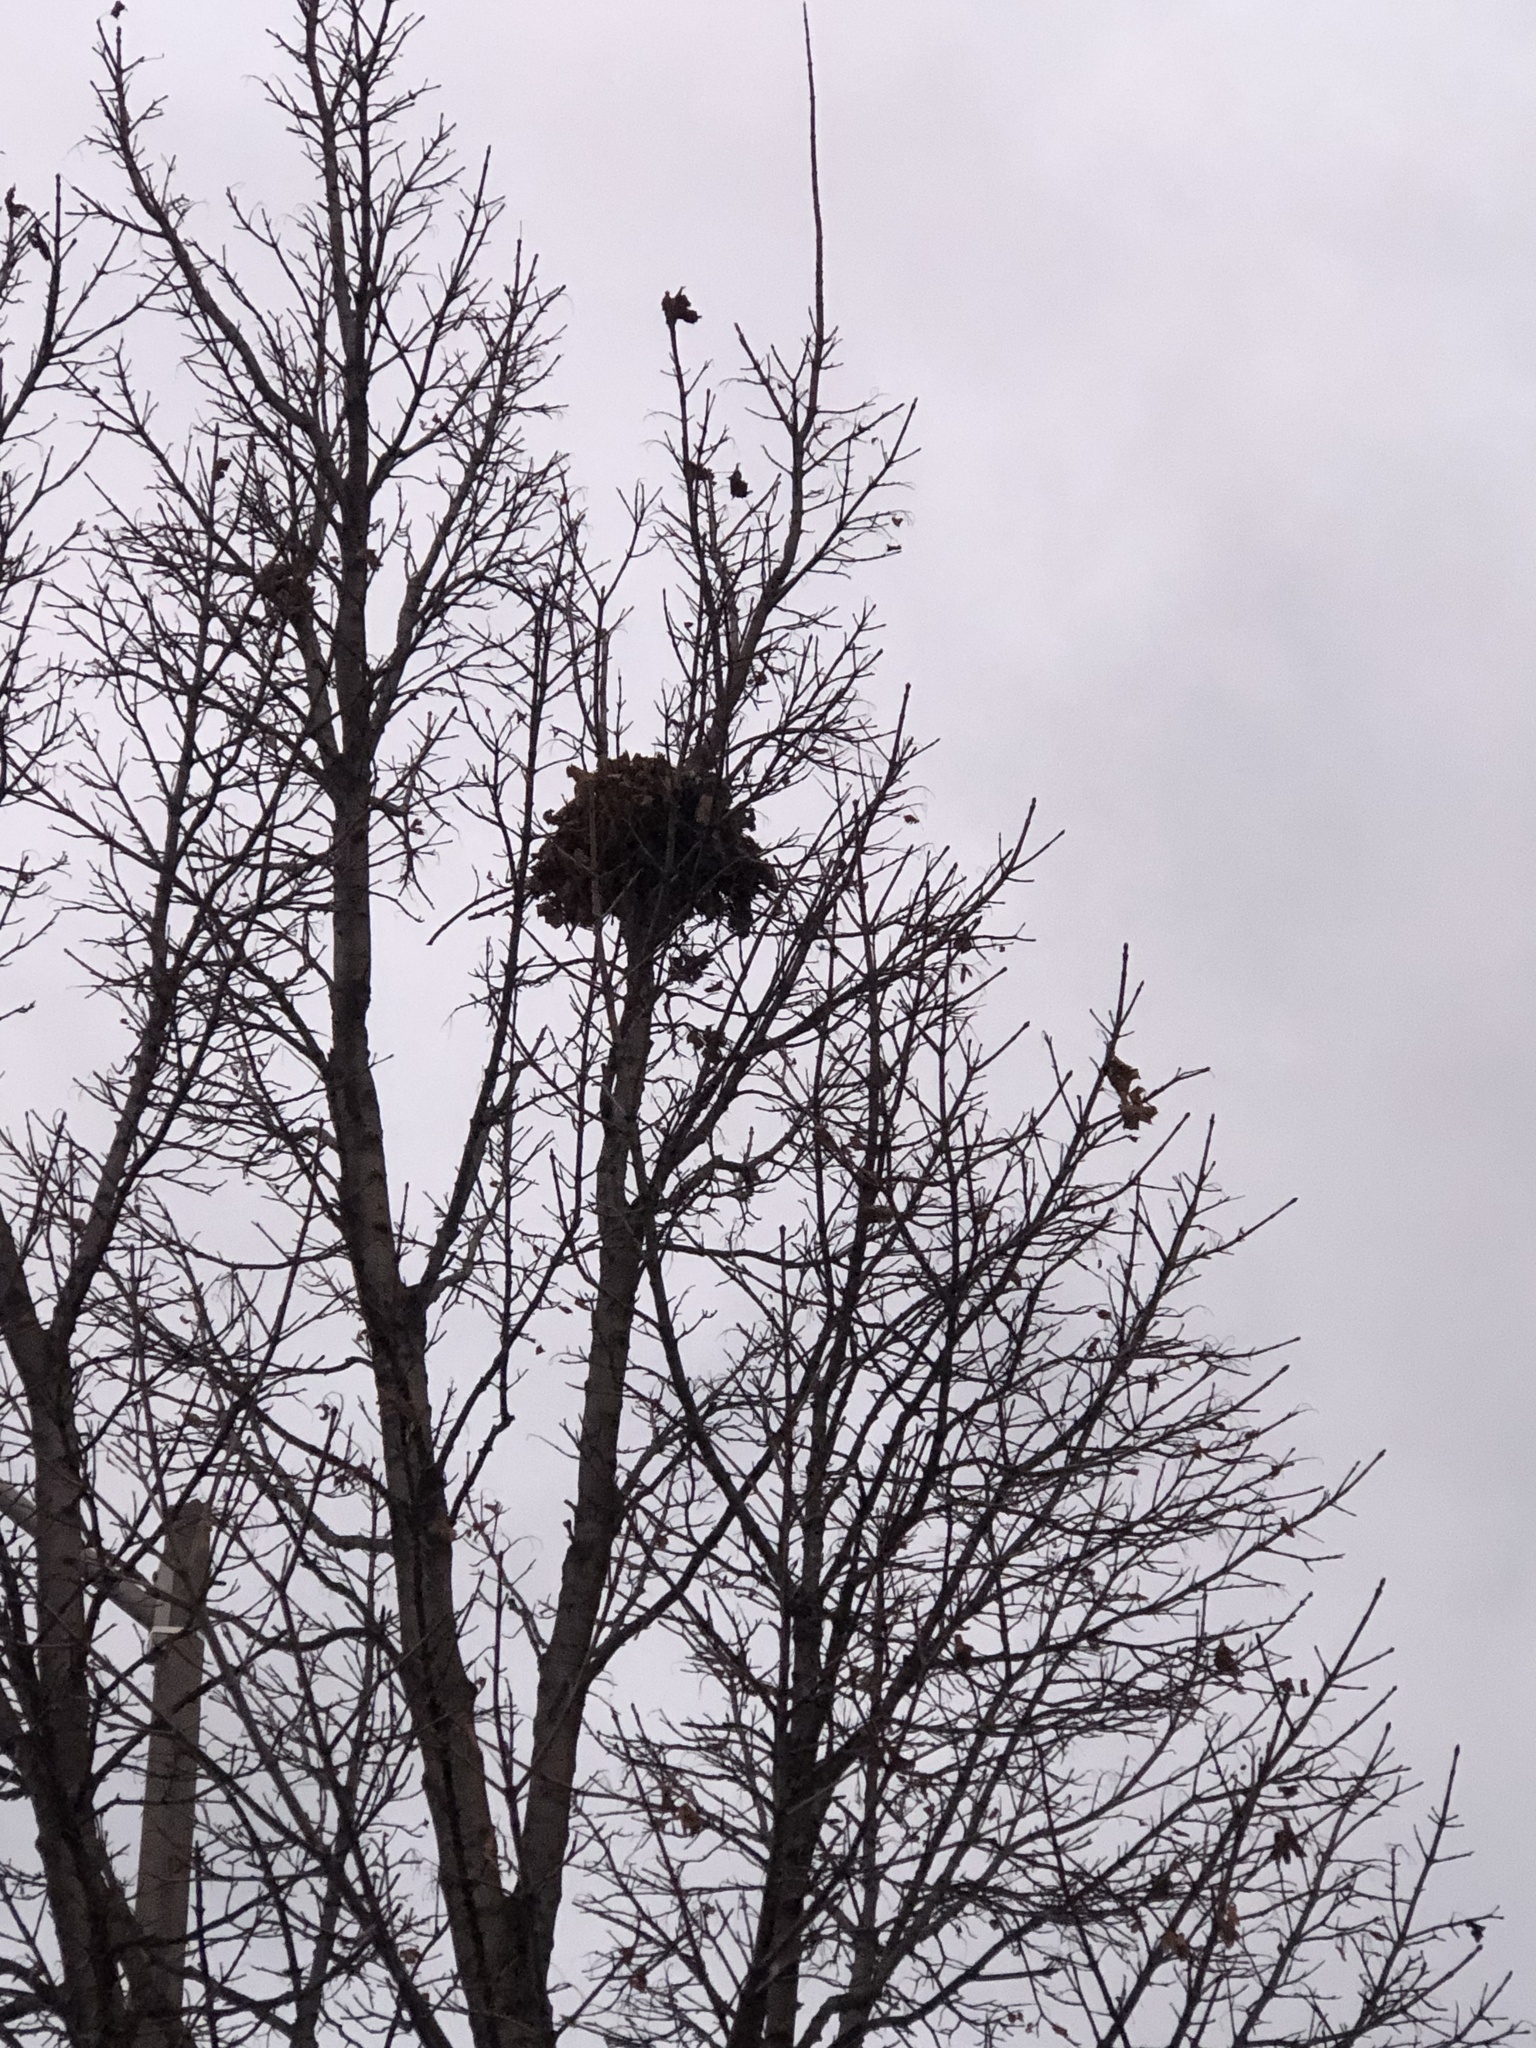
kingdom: Animalia
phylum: Chordata
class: Mammalia
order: Rodentia
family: Sciuridae
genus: Sciurus
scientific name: Sciurus carolinensis
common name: Eastern gray squirrel
